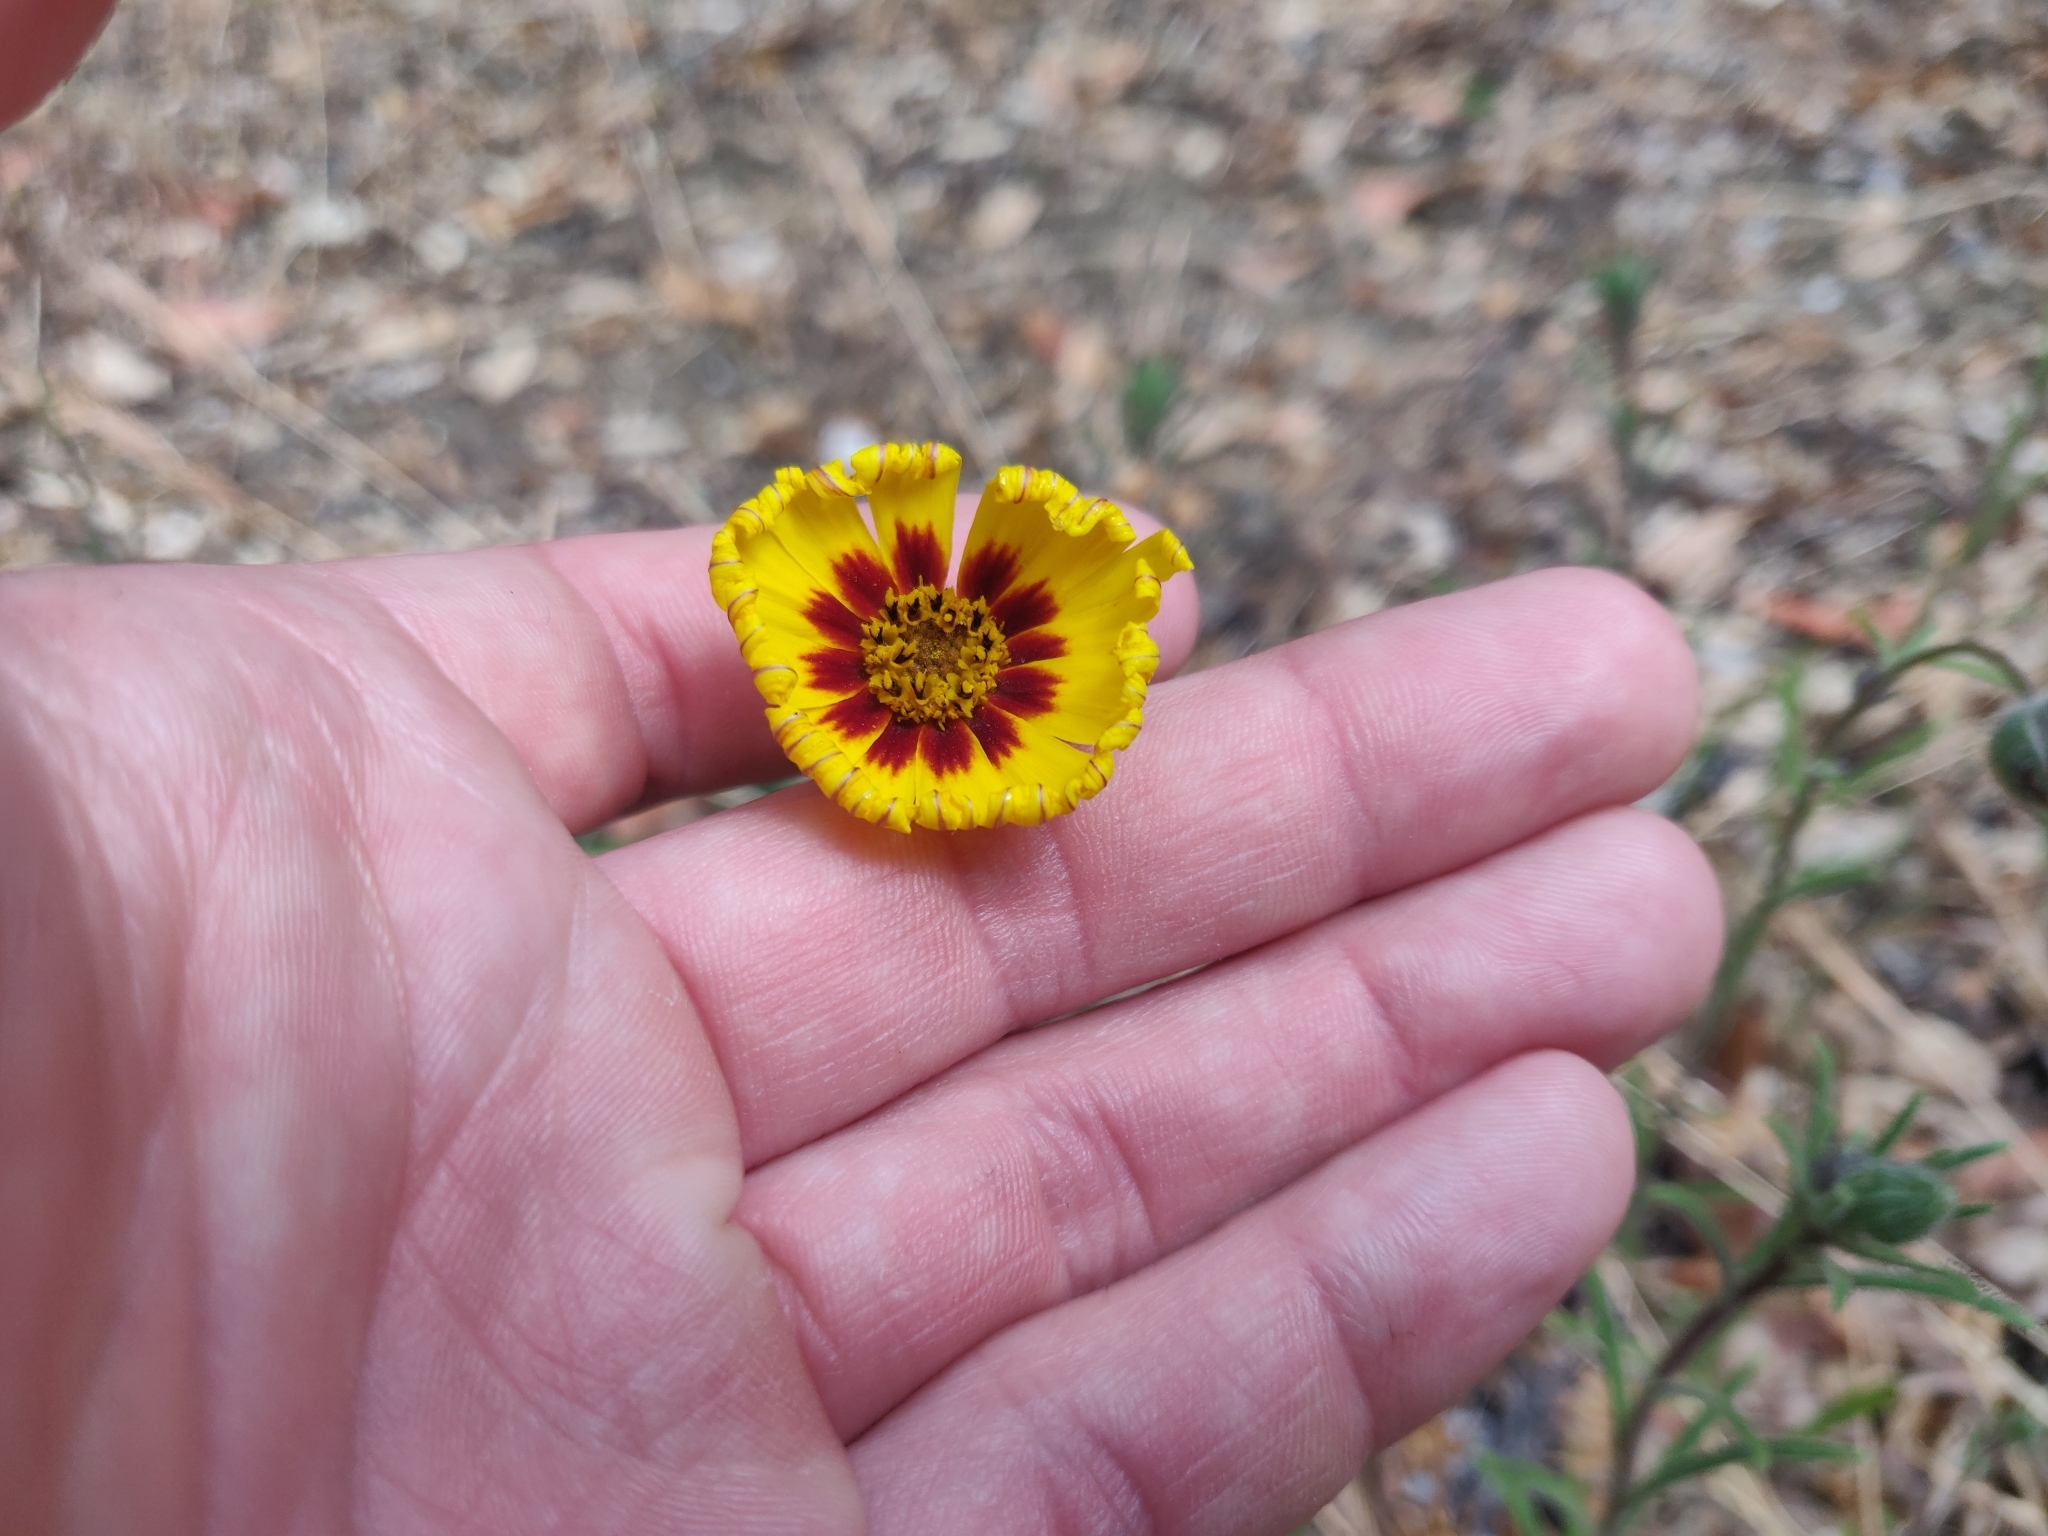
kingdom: Plantae
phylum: Tracheophyta
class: Magnoliopsida
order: Asterales
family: Asteraceae
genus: Madia
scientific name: Madia elegans
